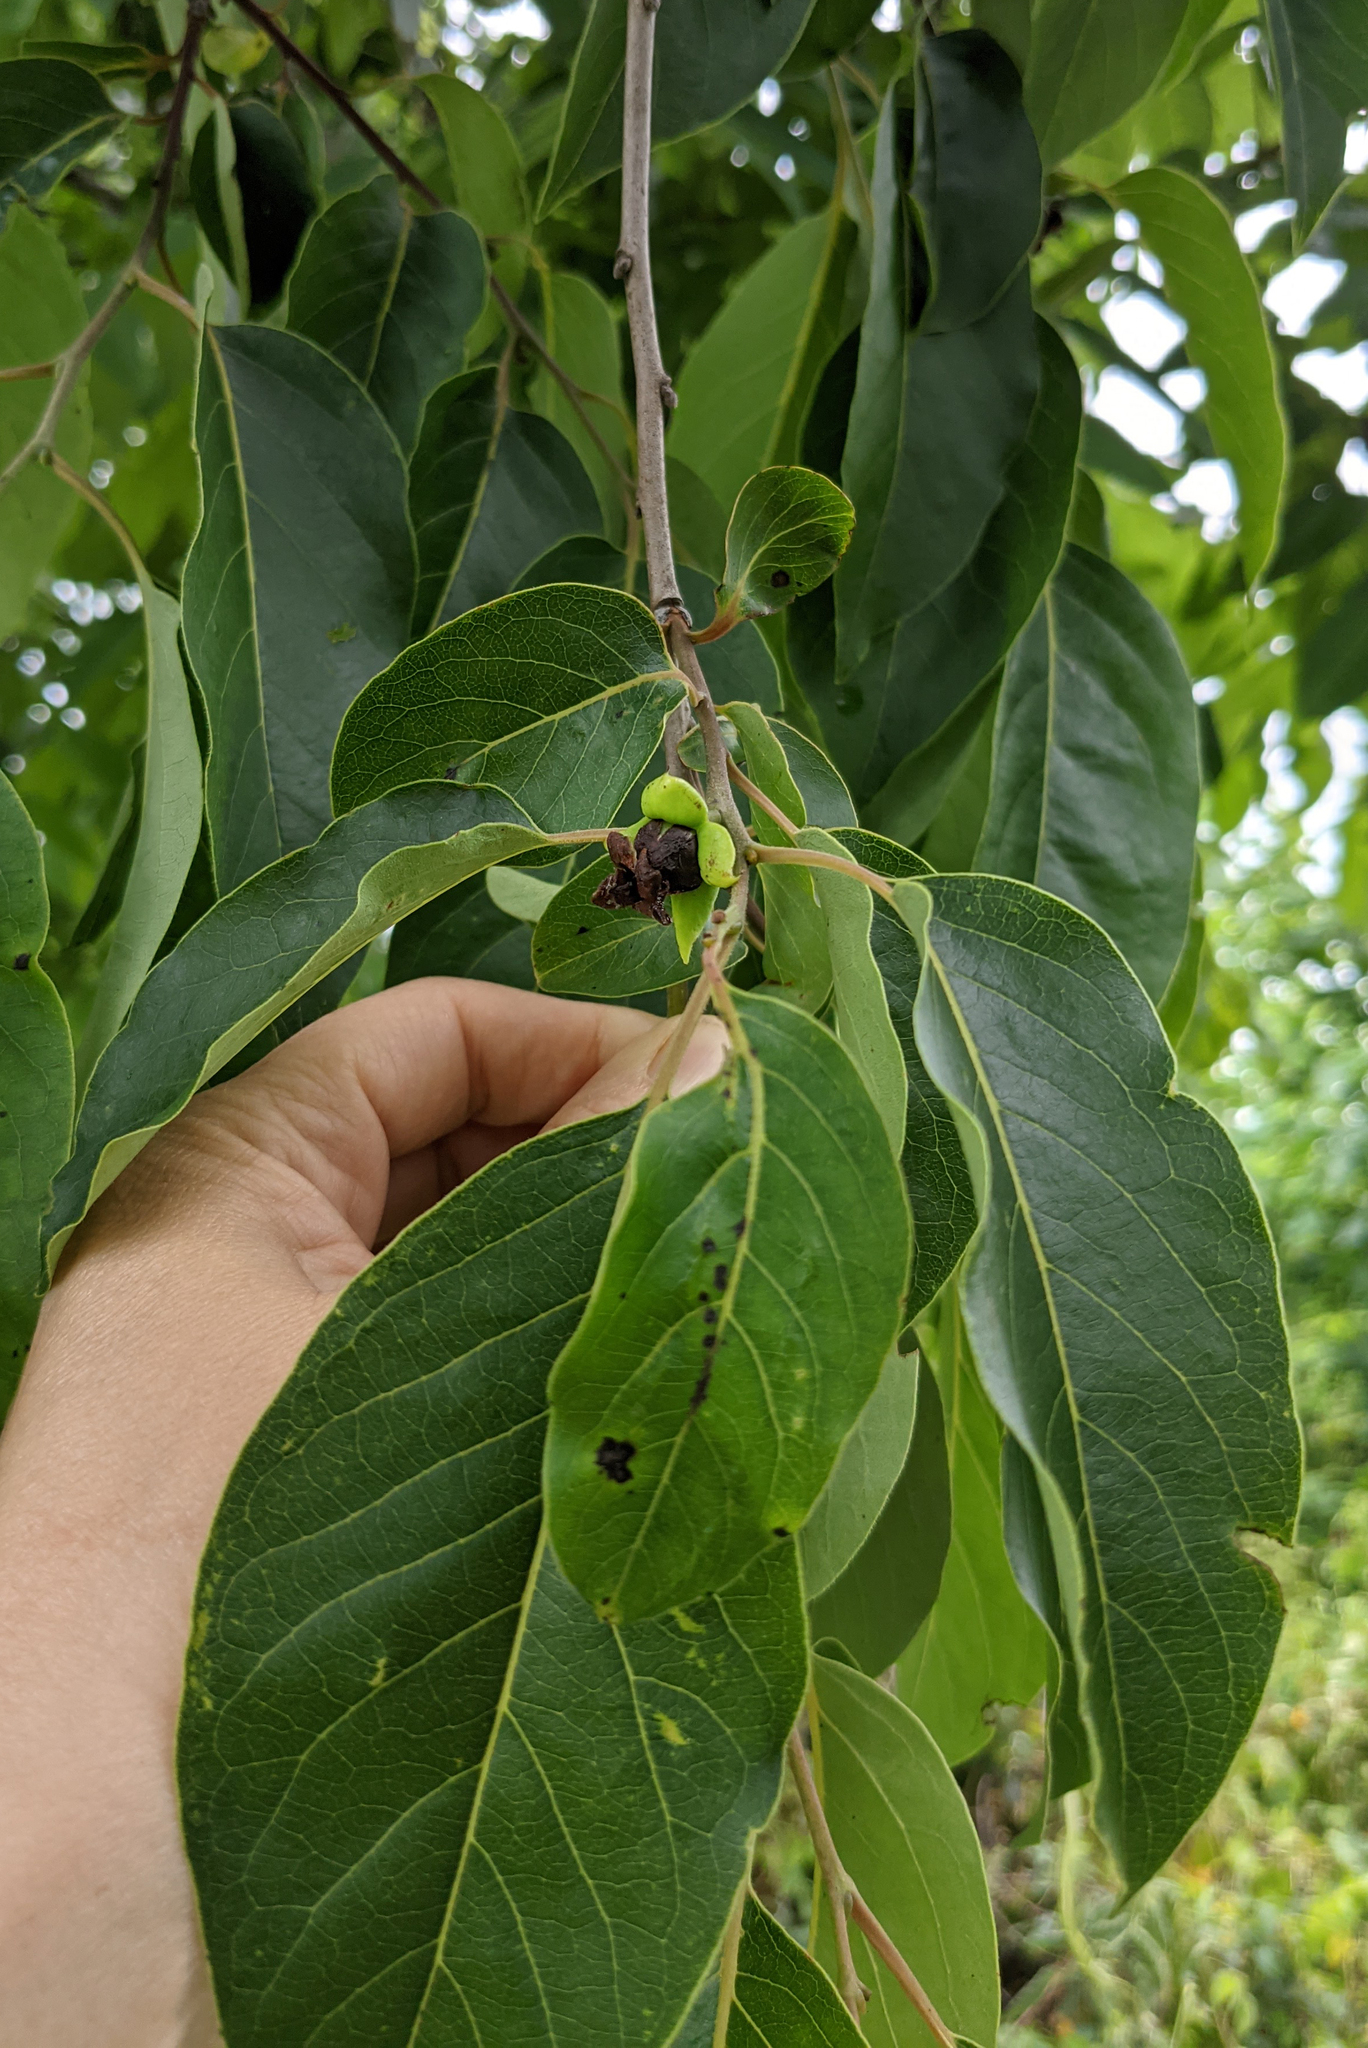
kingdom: Plantae
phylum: Tracheophyta
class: Magnoliopsida
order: Ericales
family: Ebenaceae
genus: Diospyros
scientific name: Diospyros virginiana
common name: Persimmon
